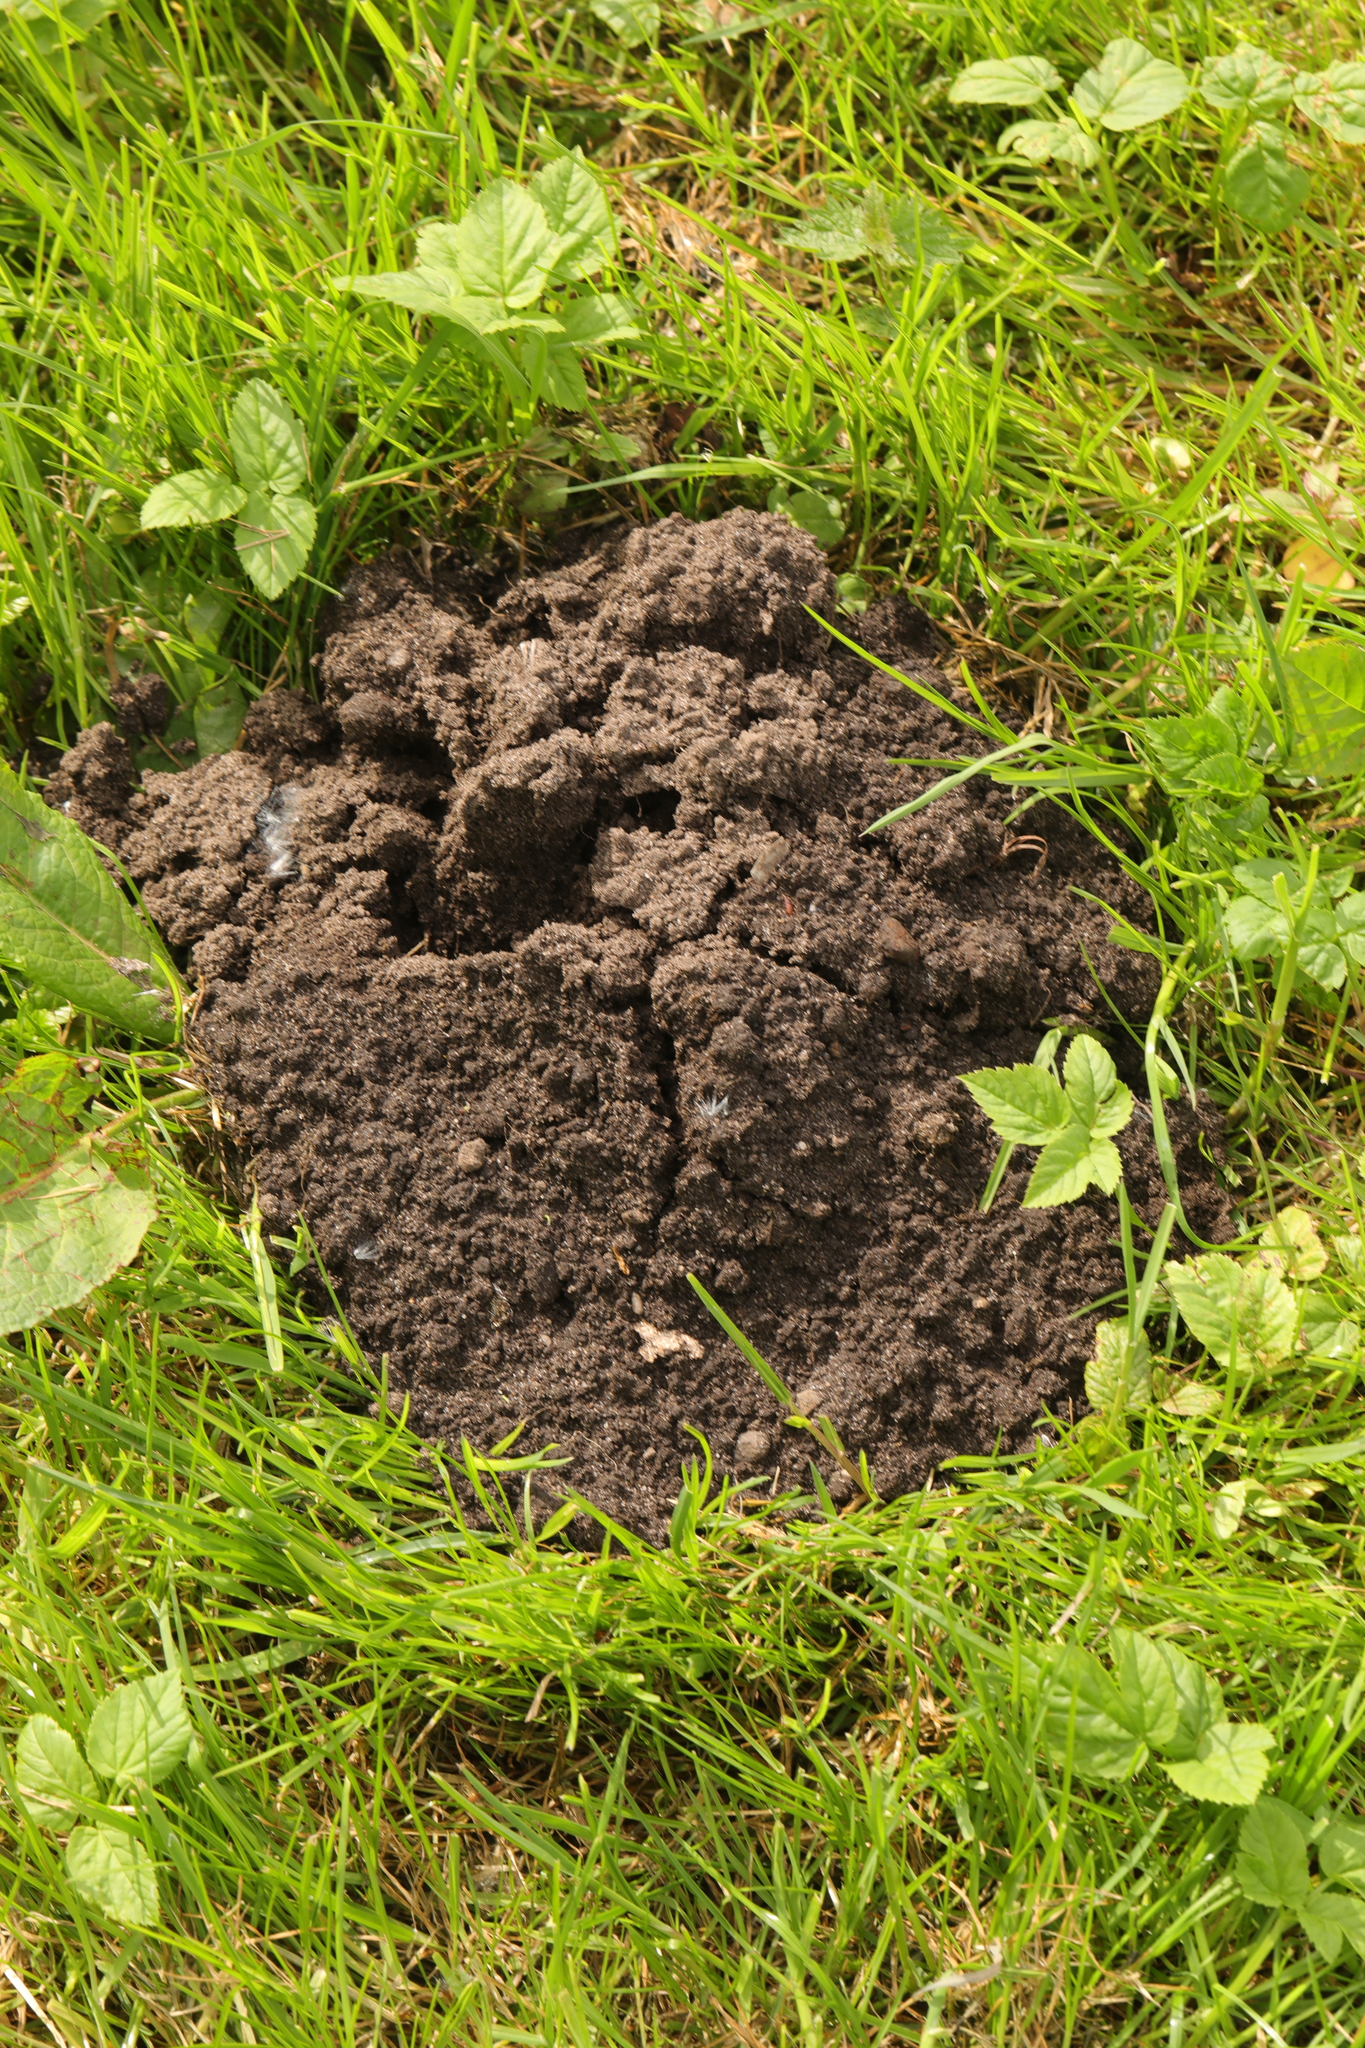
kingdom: Animalia
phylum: Chordata
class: Mammalia
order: Soricomorpha
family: Talpidae
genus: Talpa
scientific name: Talpa europaea
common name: European mole
